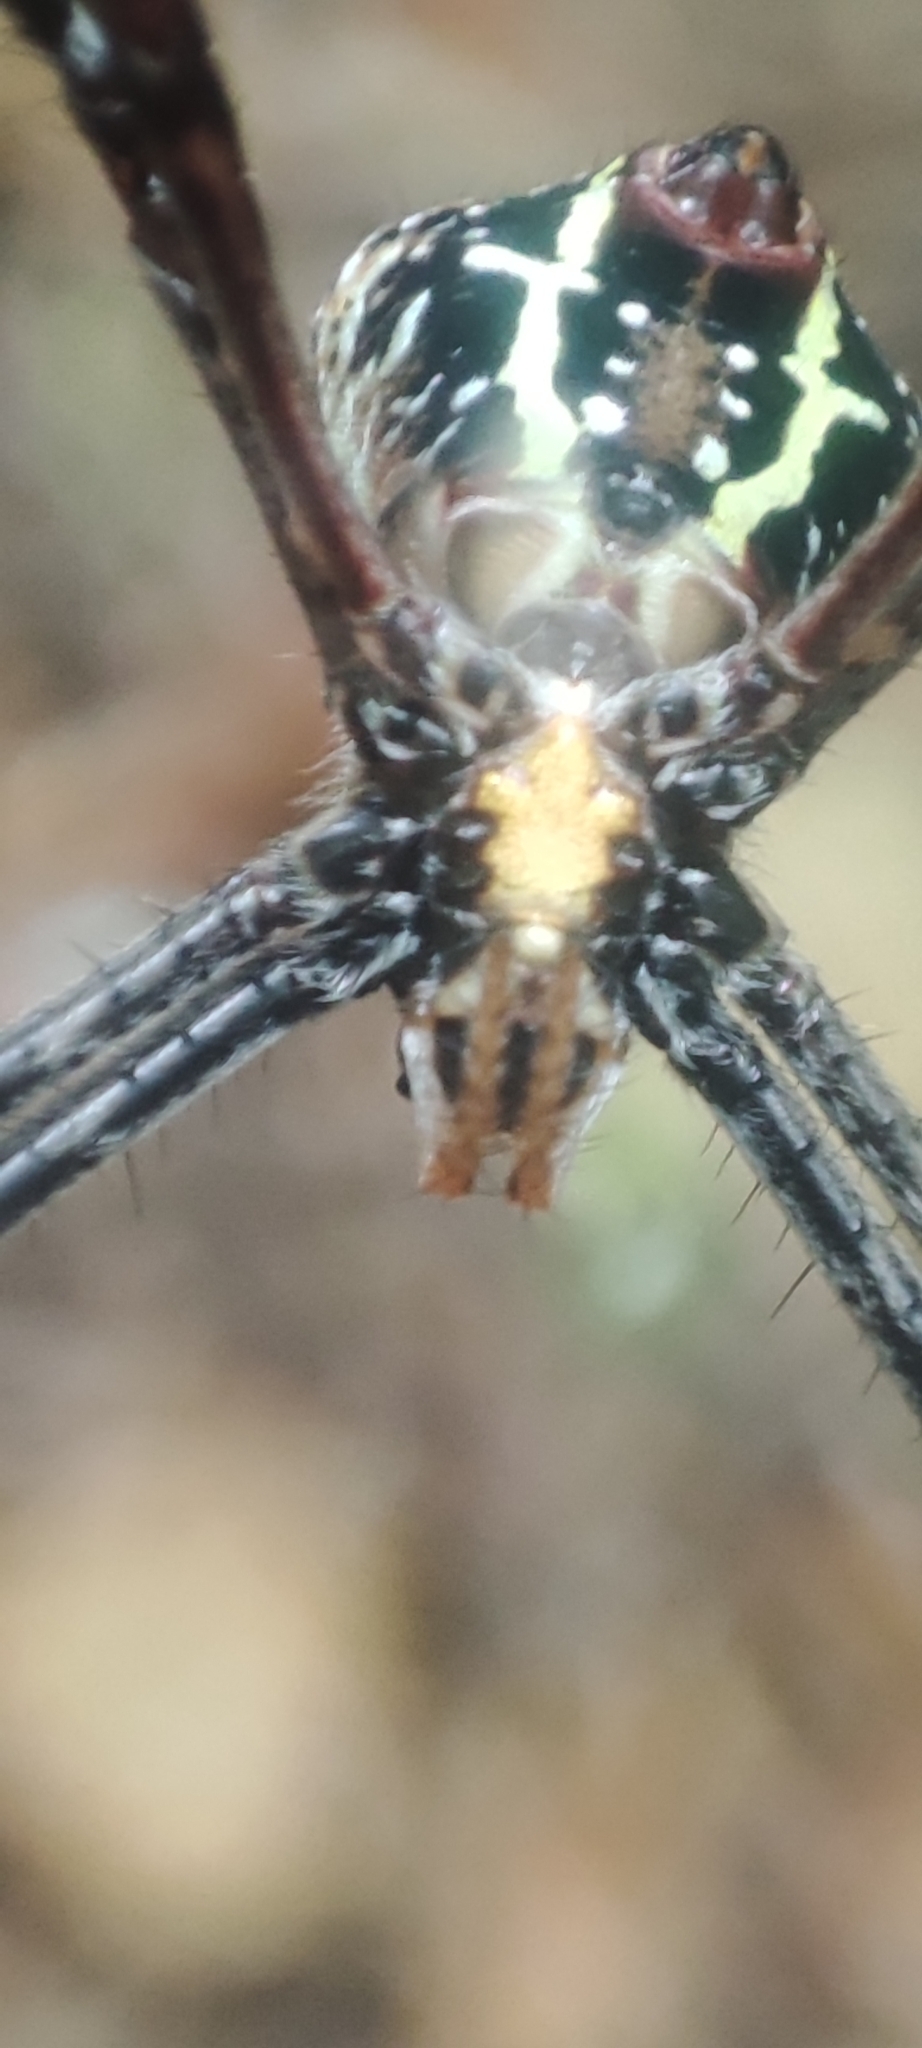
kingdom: Animalia
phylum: Arthropoda
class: Arachnida
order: Araneae
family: Araneidae
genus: Argiope
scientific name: Argiope anasuja
